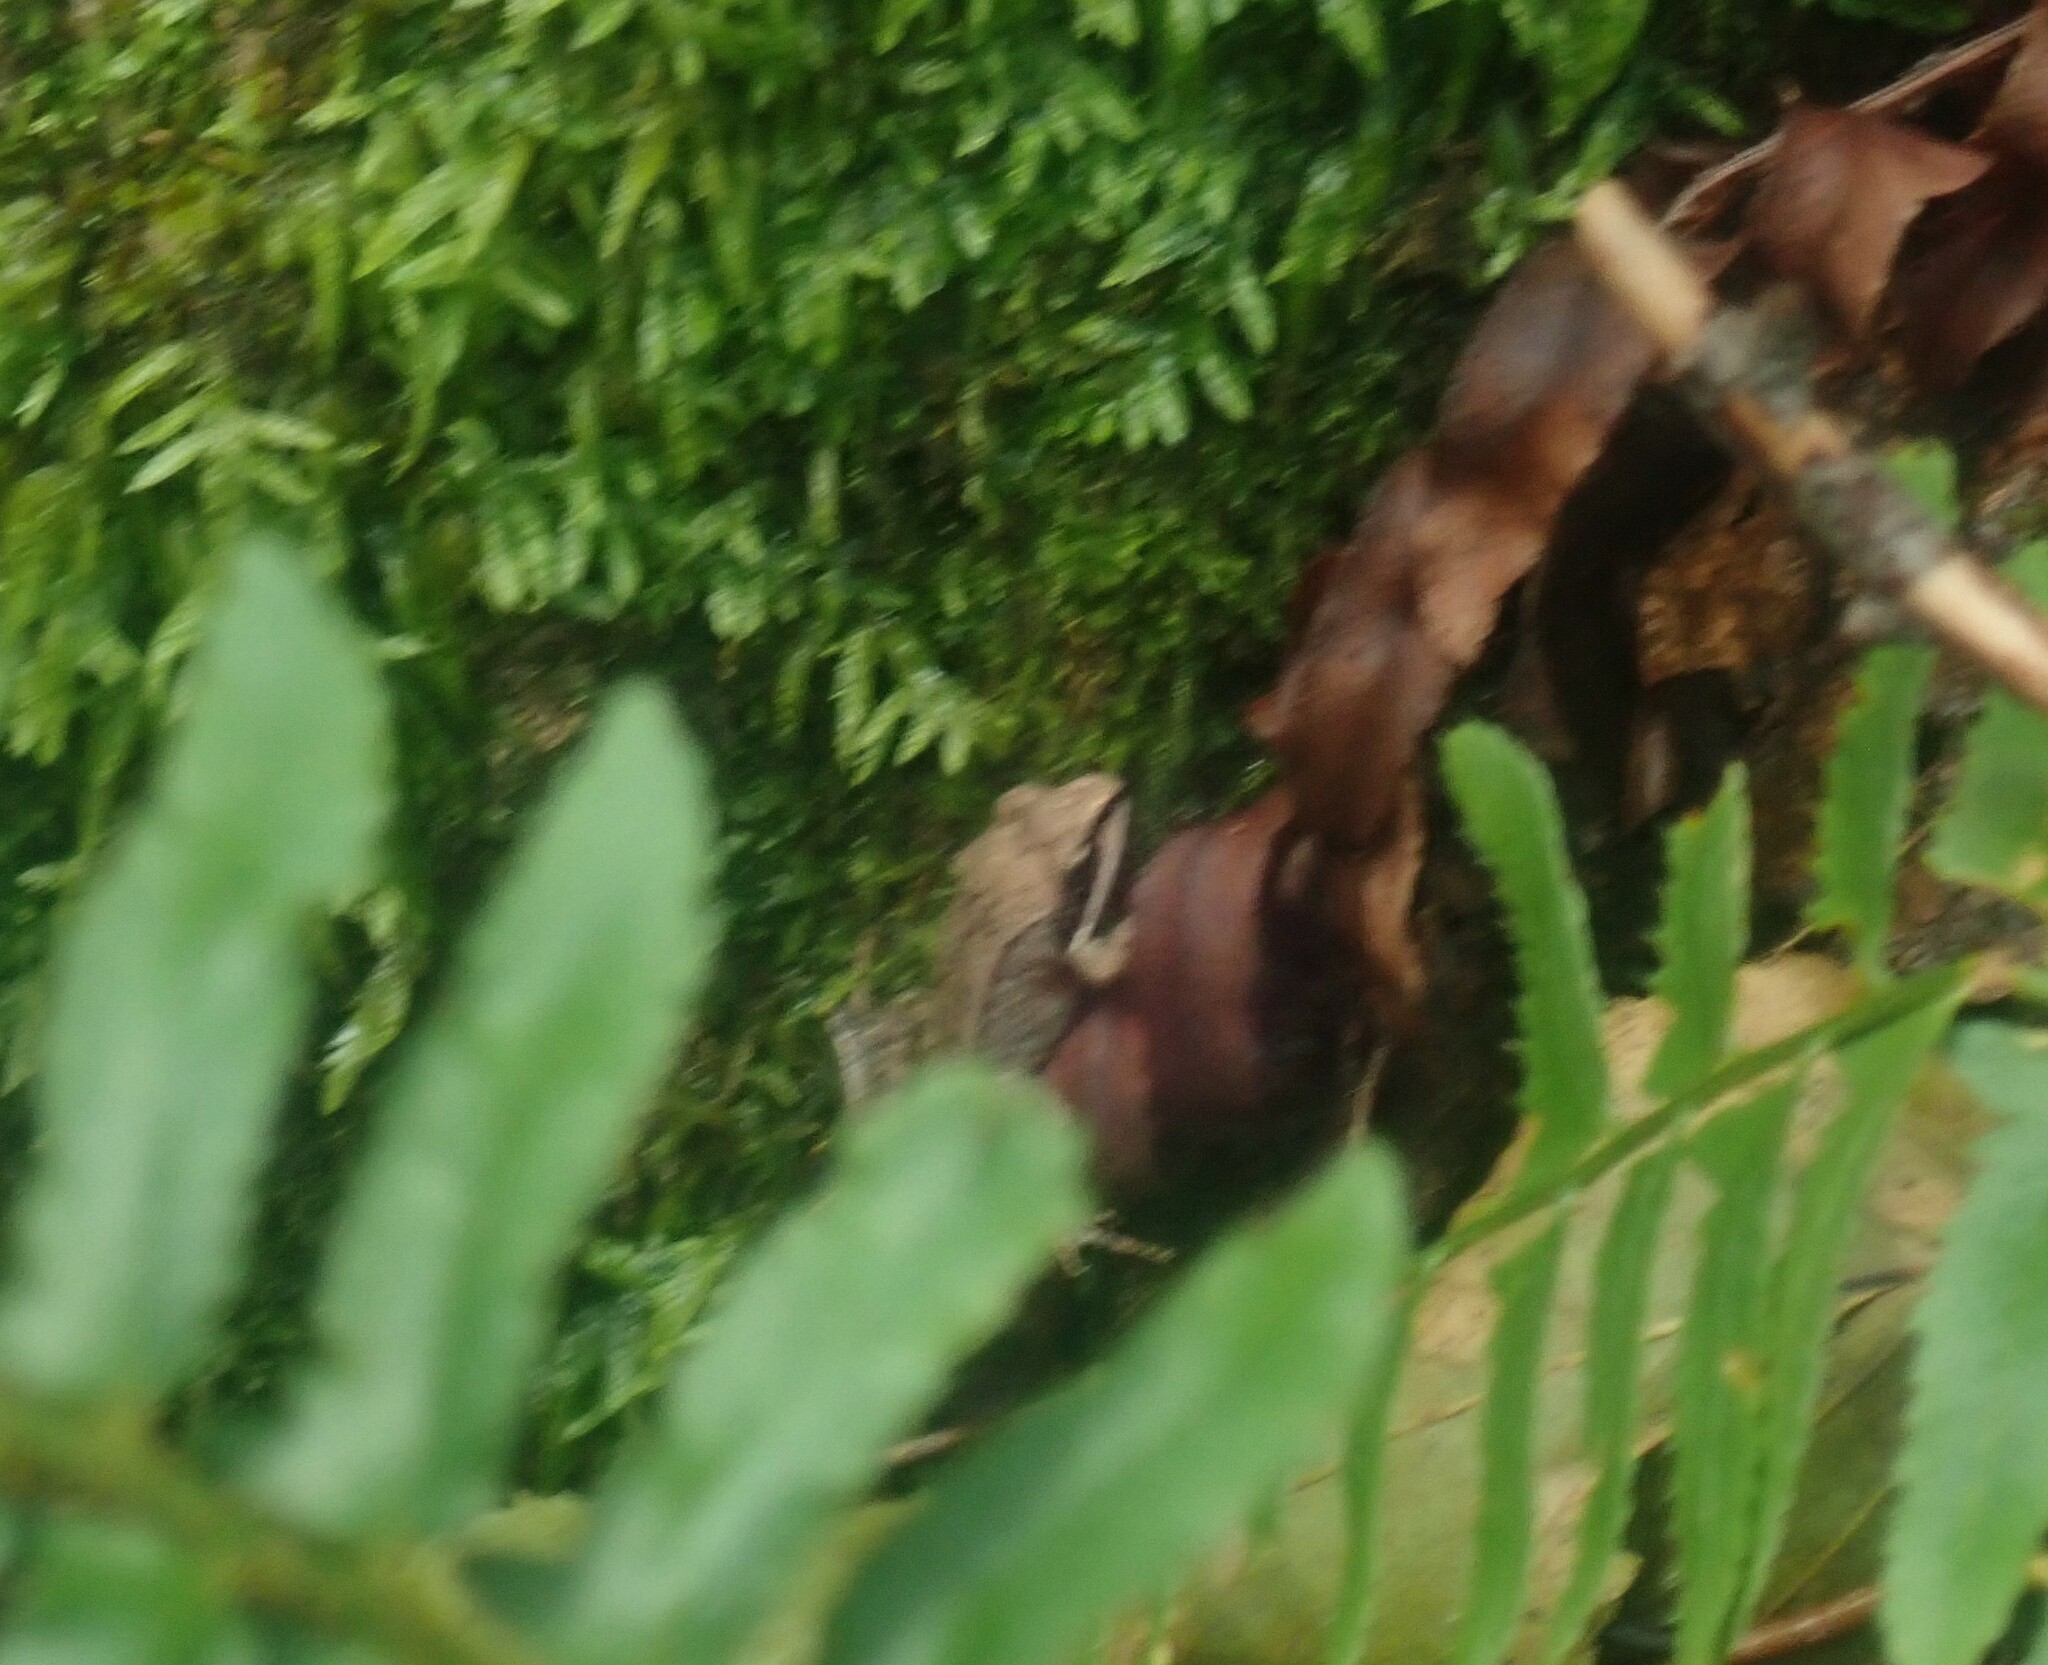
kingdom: Animalia
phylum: Chordata
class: Amphibia
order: Anura
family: Ranidae
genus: Lithobates
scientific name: Lithobates sylvaticus
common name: Wood frog
